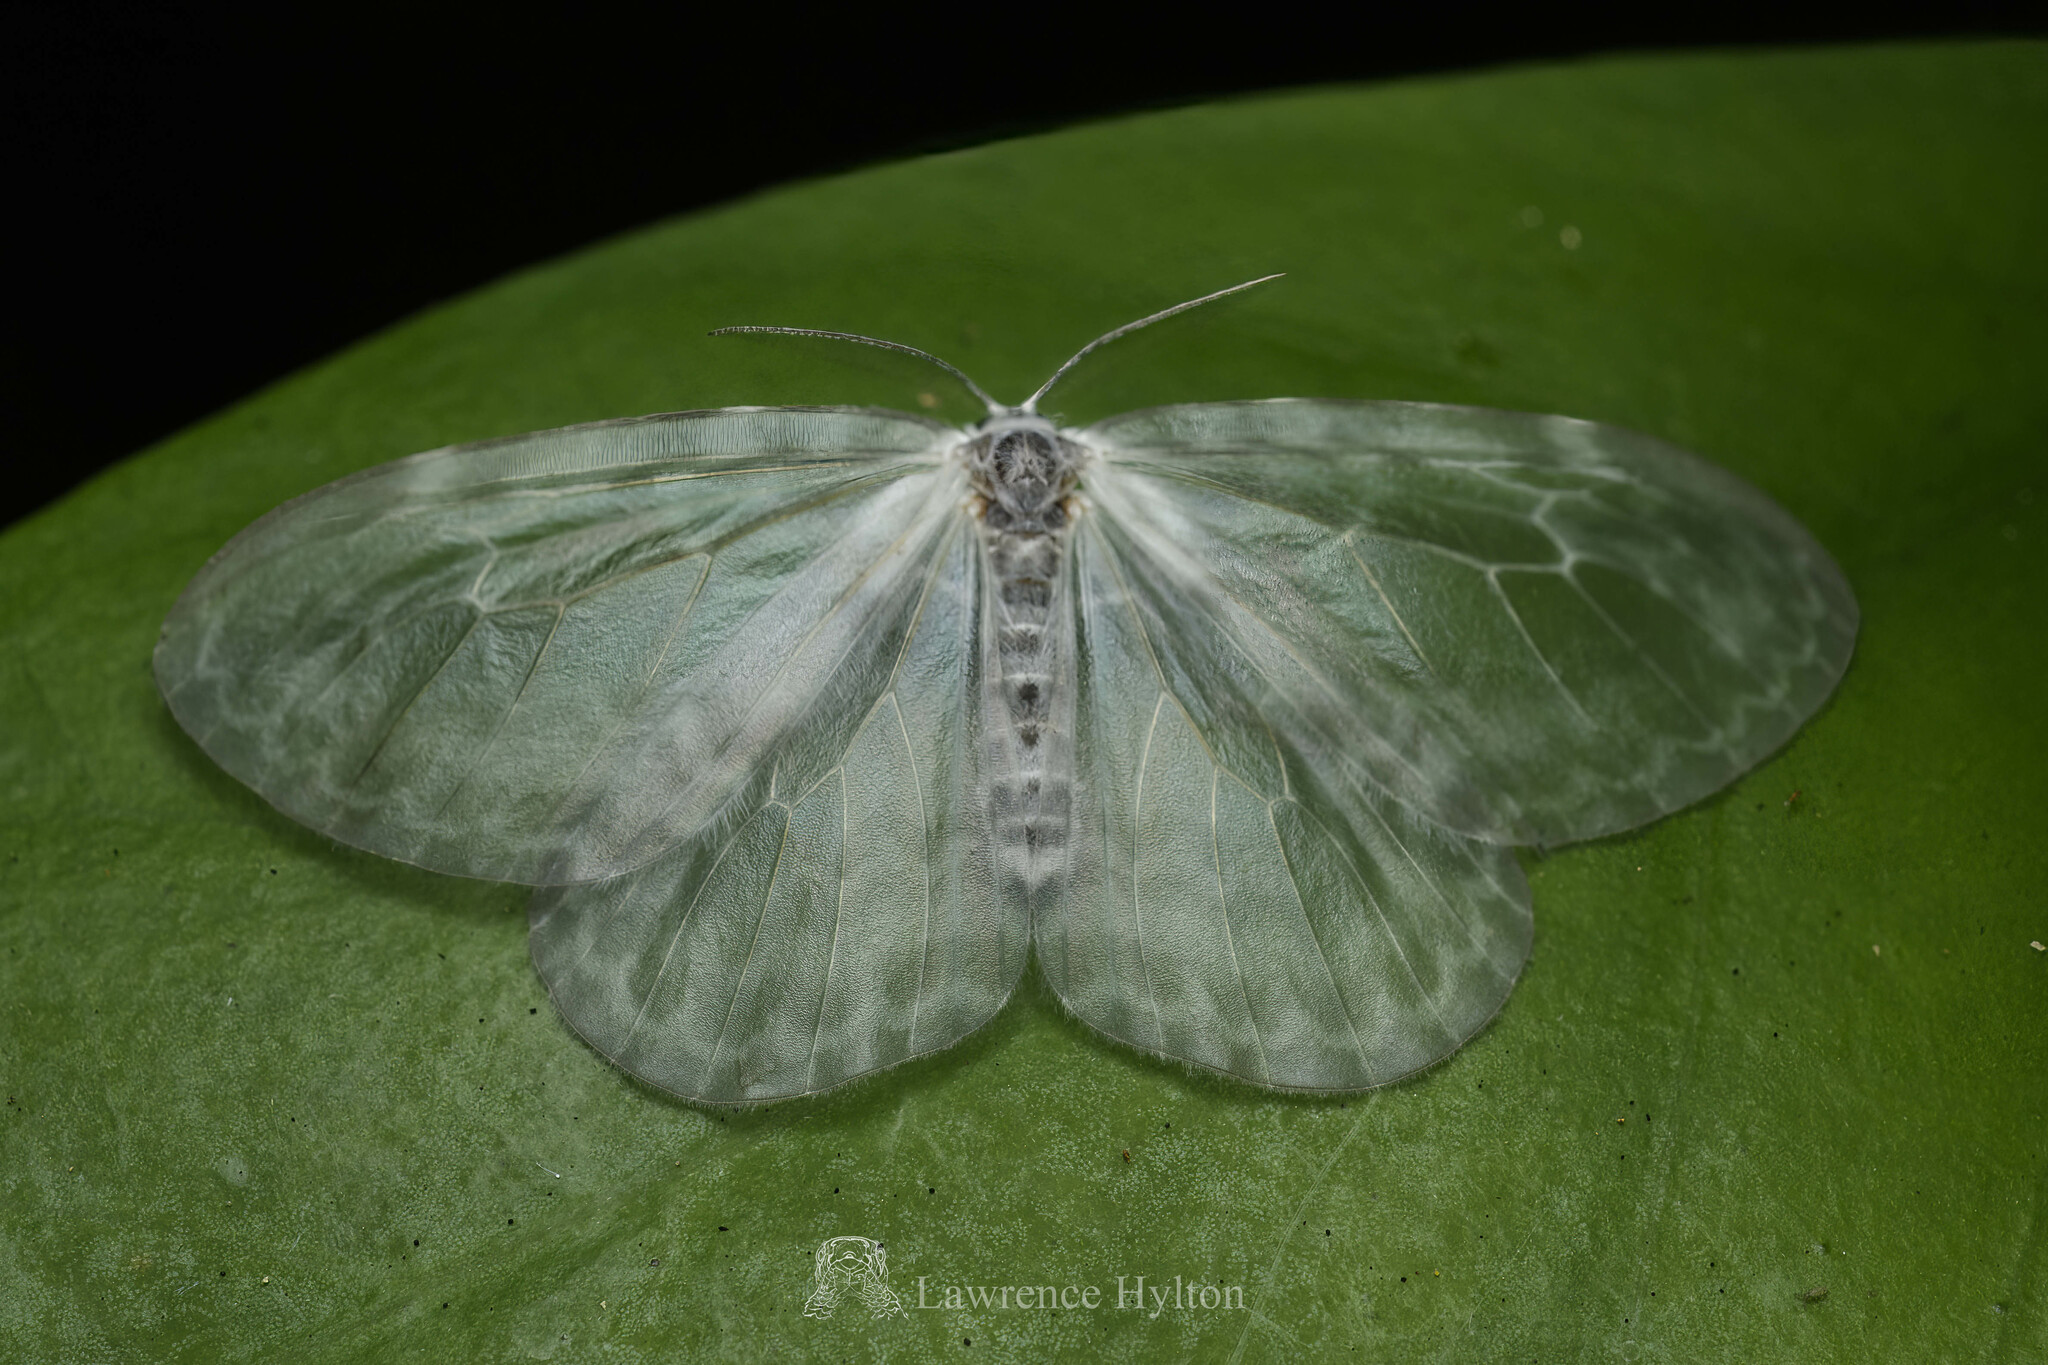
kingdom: Animalia
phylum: Arthropoda
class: Insecta
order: Lepidoptera
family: Drepanidae
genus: Deroca
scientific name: Deroca hyalina
